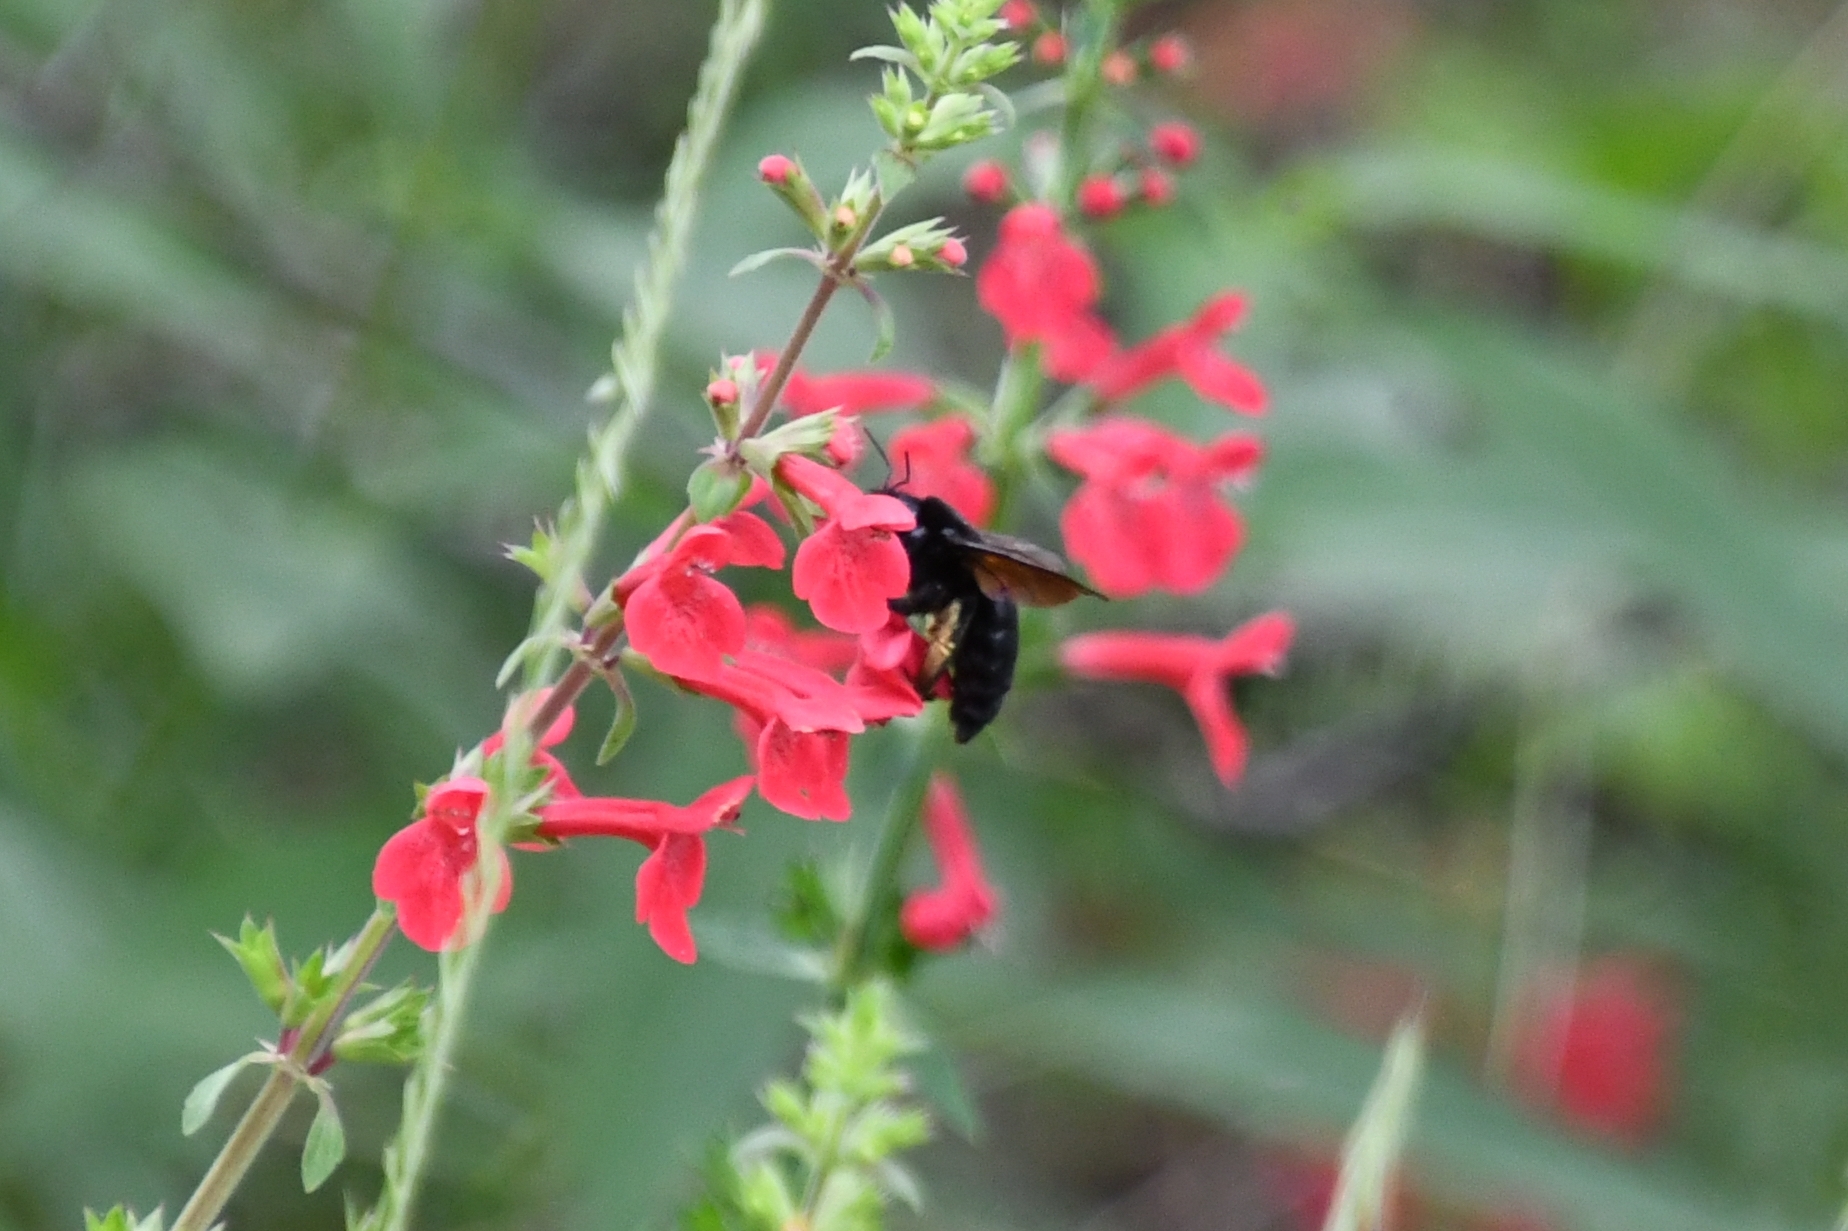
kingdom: Animalia
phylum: Arthropoda
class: Insecta
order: Hymenoptera
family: Apidae
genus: Xylocopa
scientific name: Xylocopa sonorina
